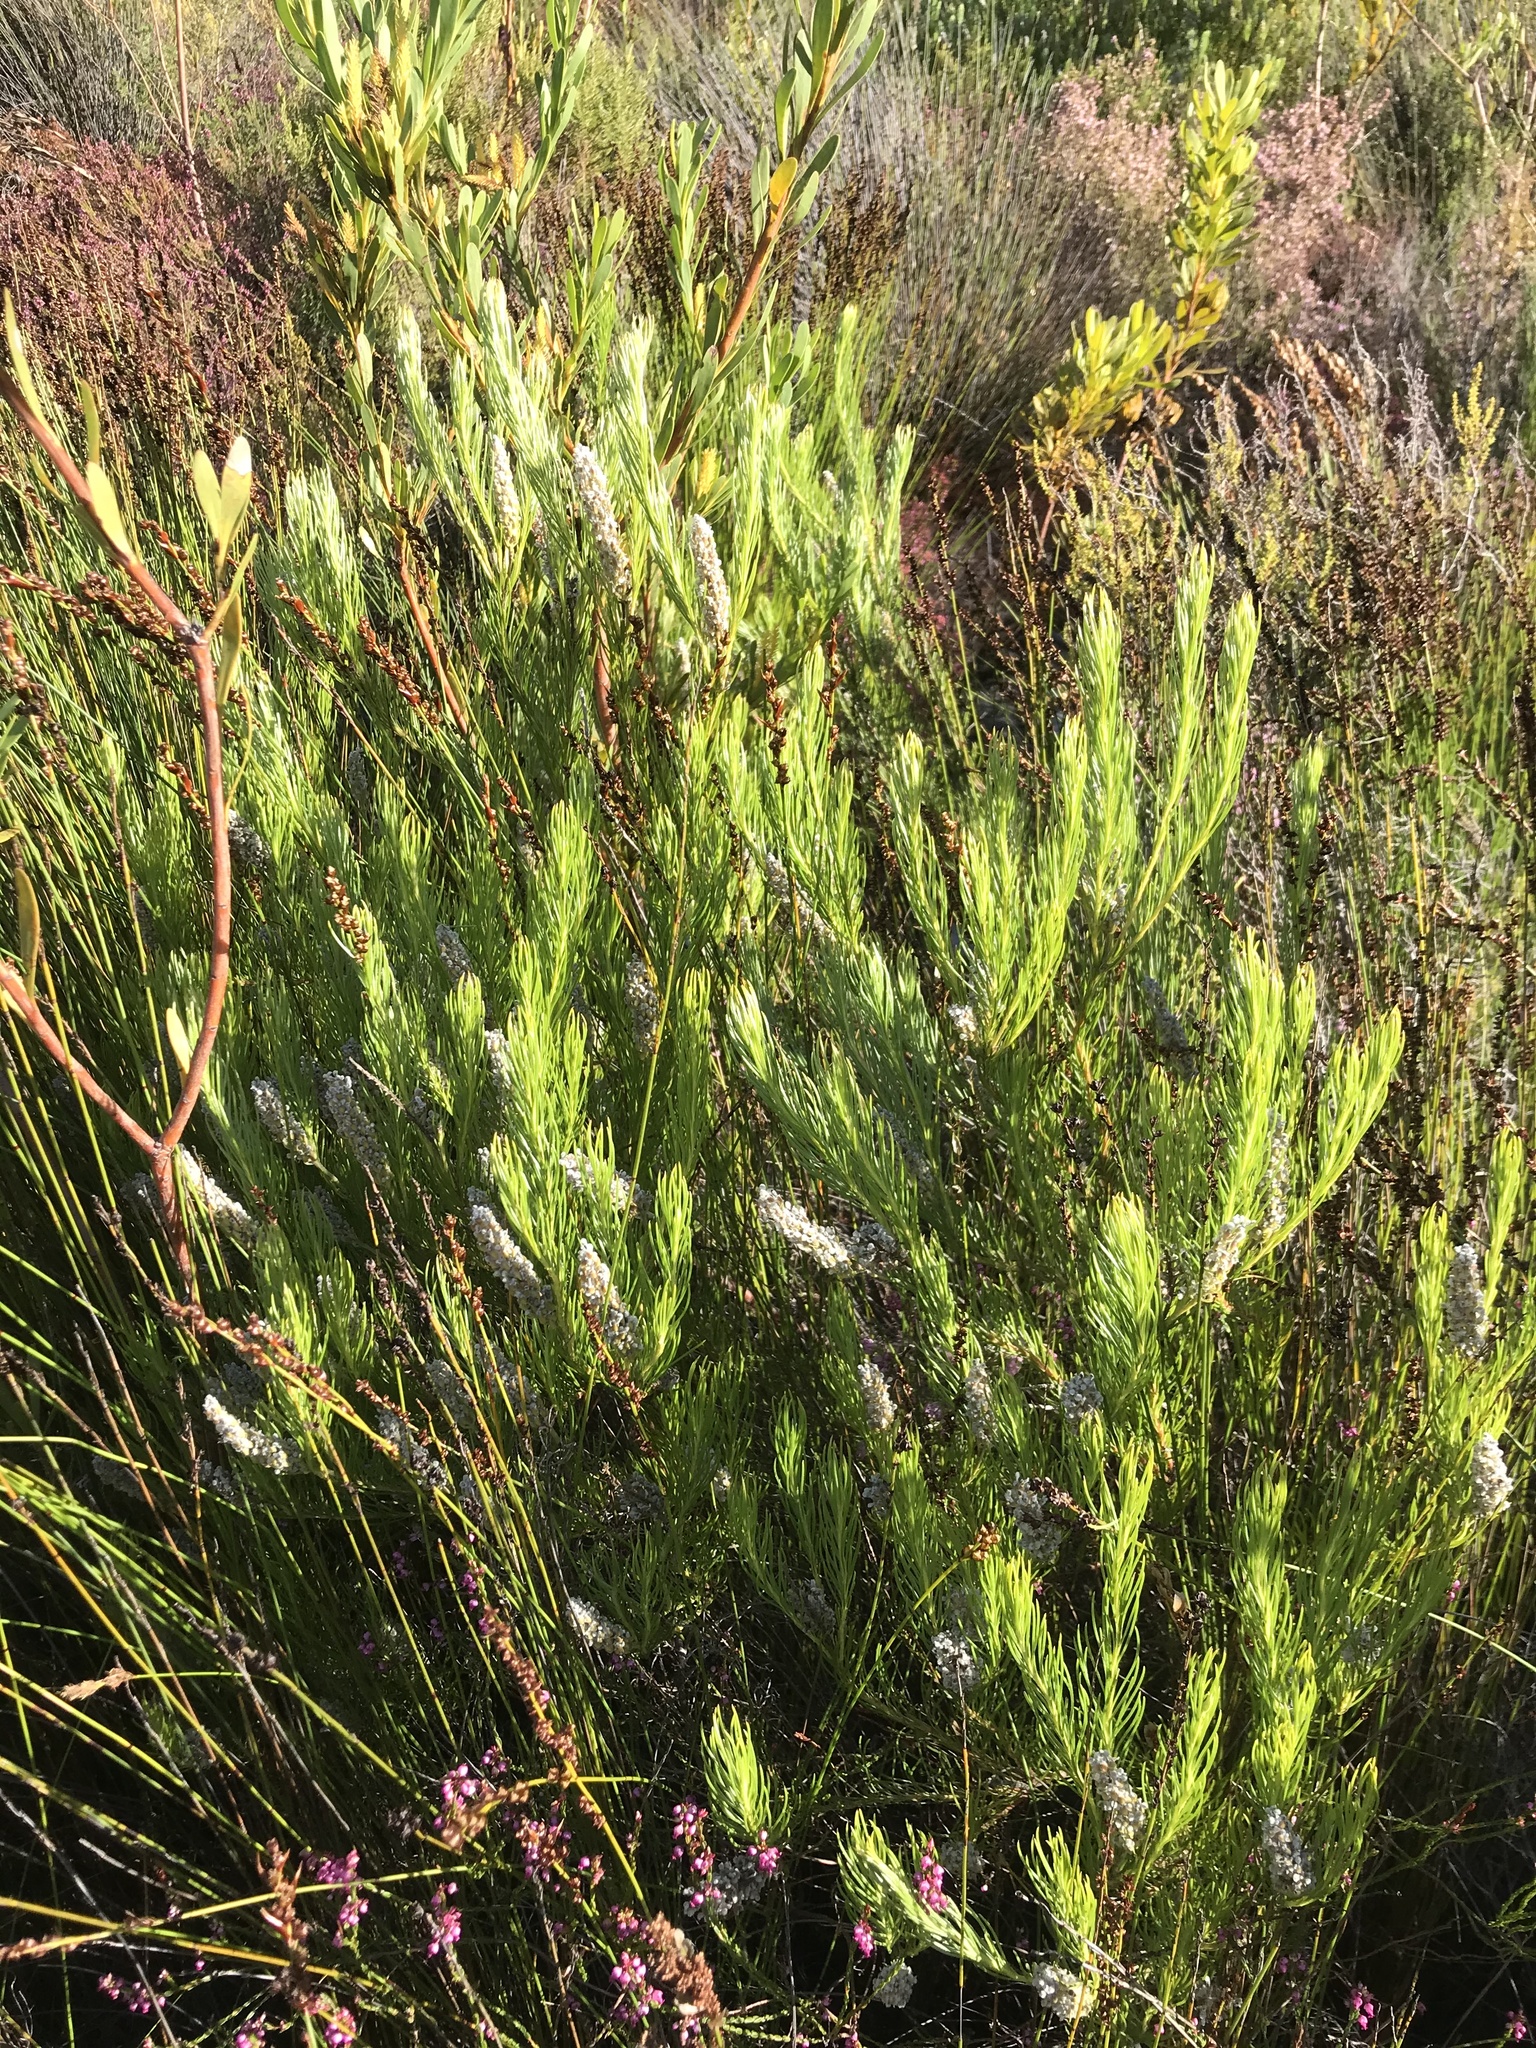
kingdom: Plantae
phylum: Tracheophyta
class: Magnoliopsida
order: Proteales
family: Proteaceae
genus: Spatalla
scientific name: Spatalla curvifolia
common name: White-stalked spoon
